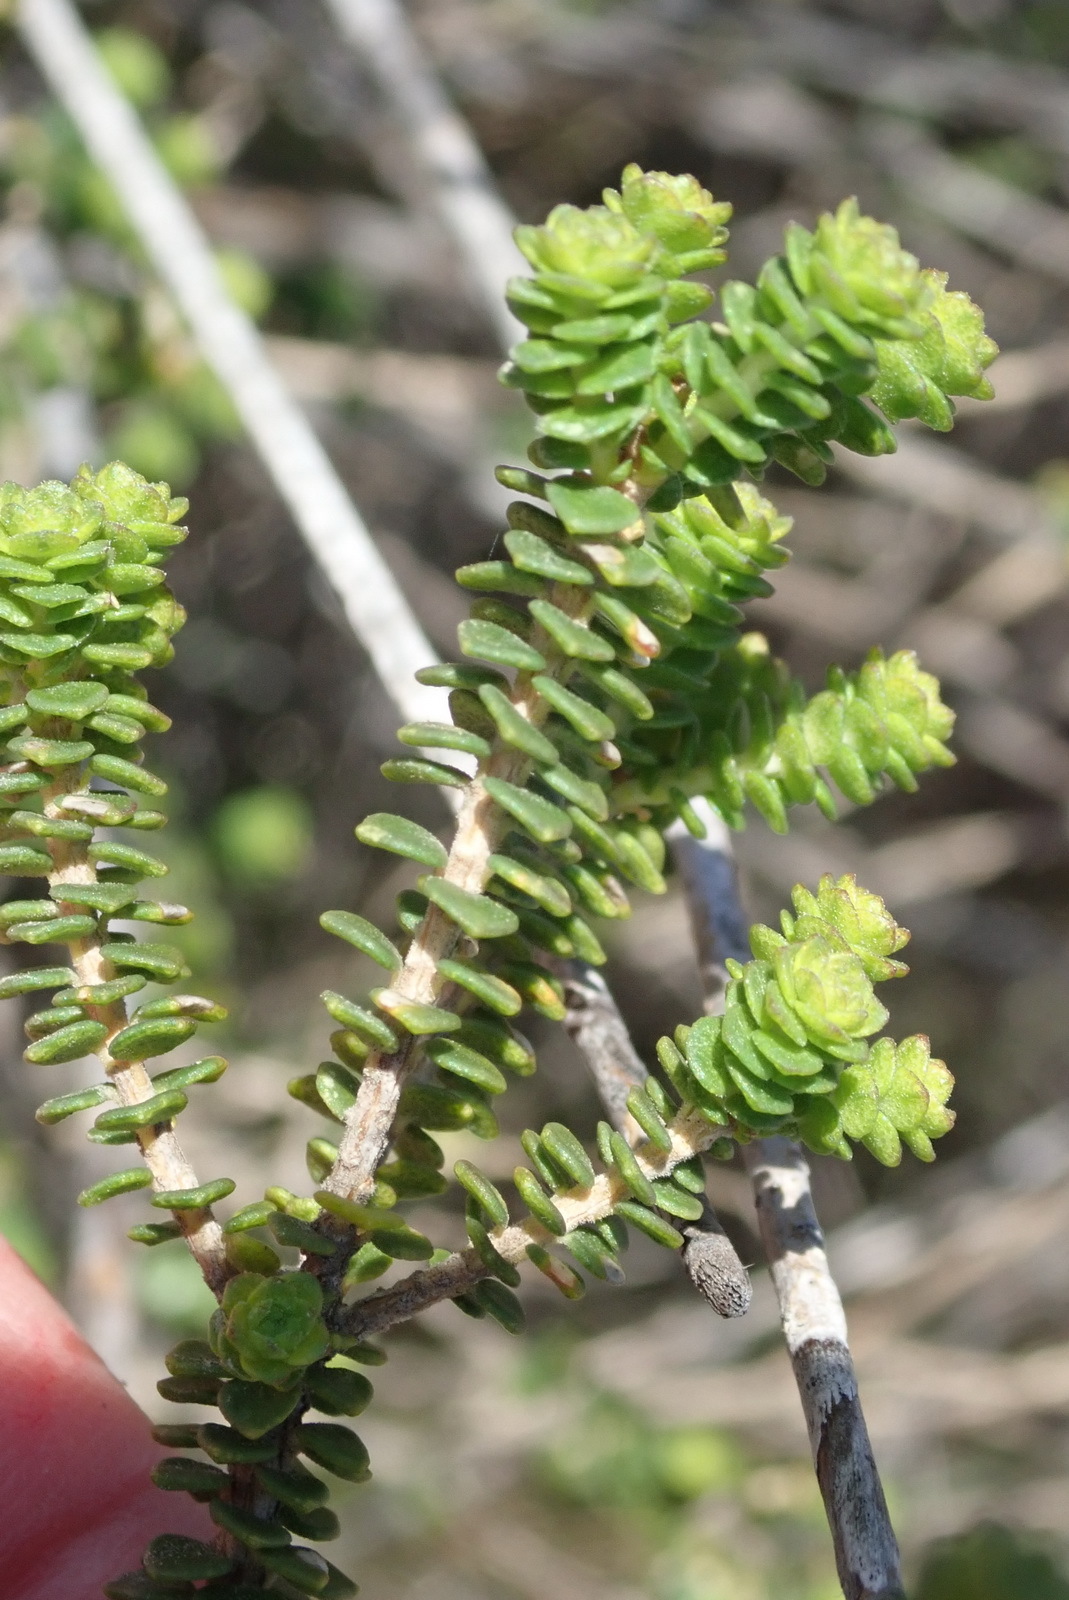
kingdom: Plantae
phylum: Tracheophyta
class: Magnoliopsida
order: Sapindales
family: Rutaceae
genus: Agathosma
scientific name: Agathosma muirii
